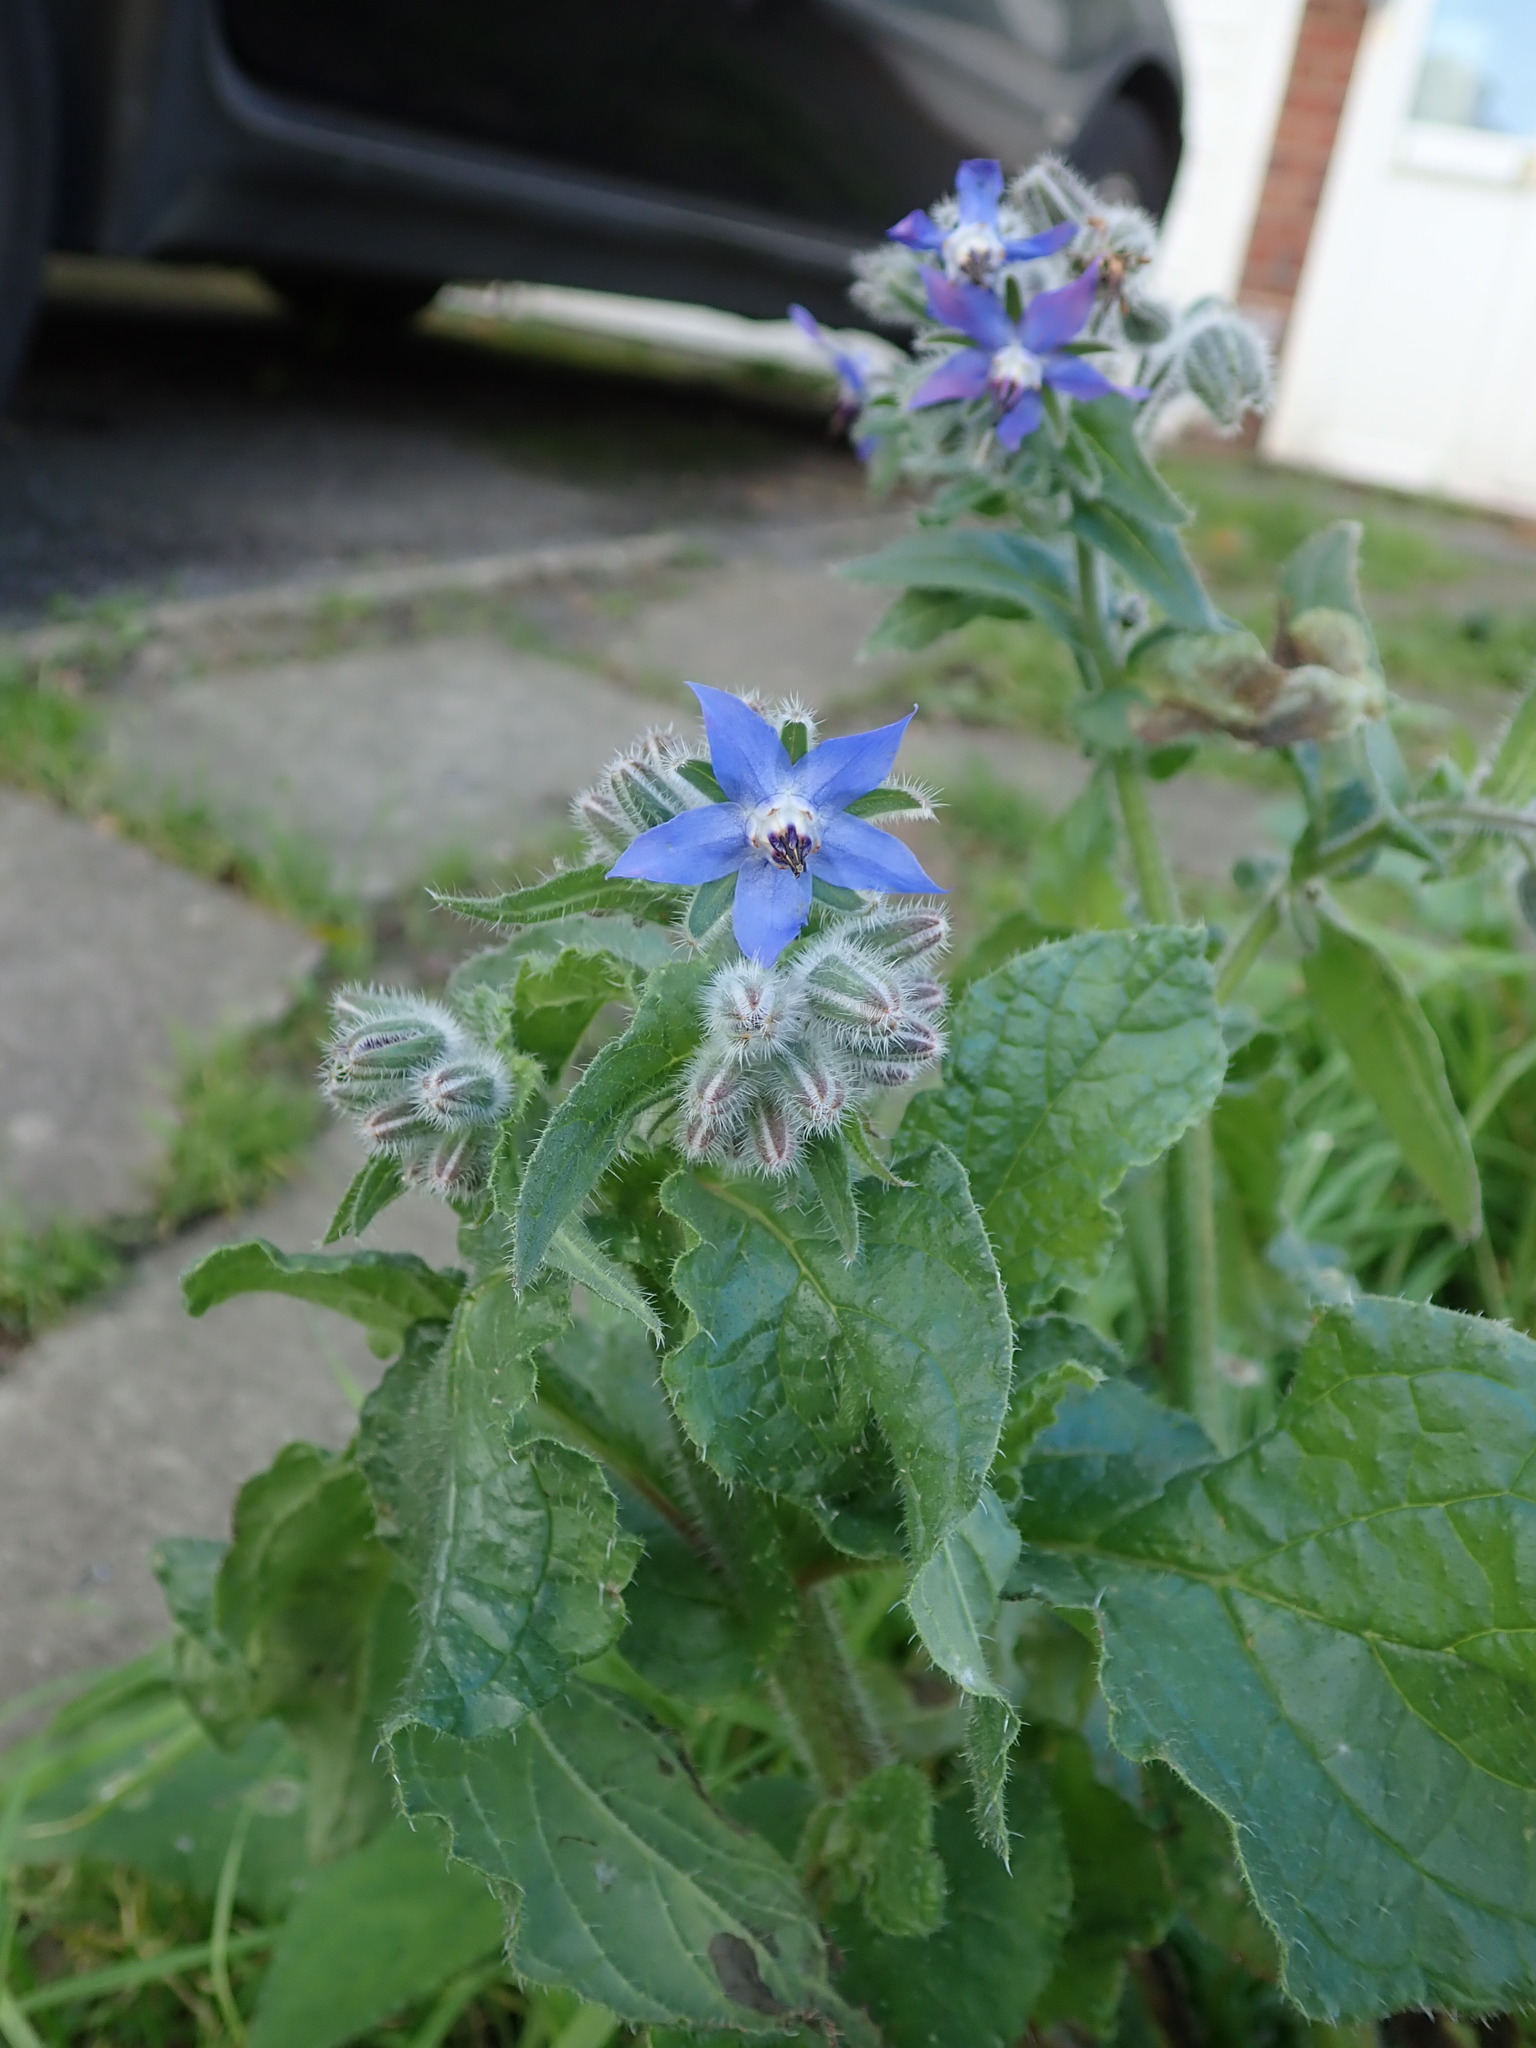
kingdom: Plantae
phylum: Tracheophyta
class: Magnoliopsida
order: Boraginales
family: Boraginaceae
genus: Borago
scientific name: Borago officinalis
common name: Borage
